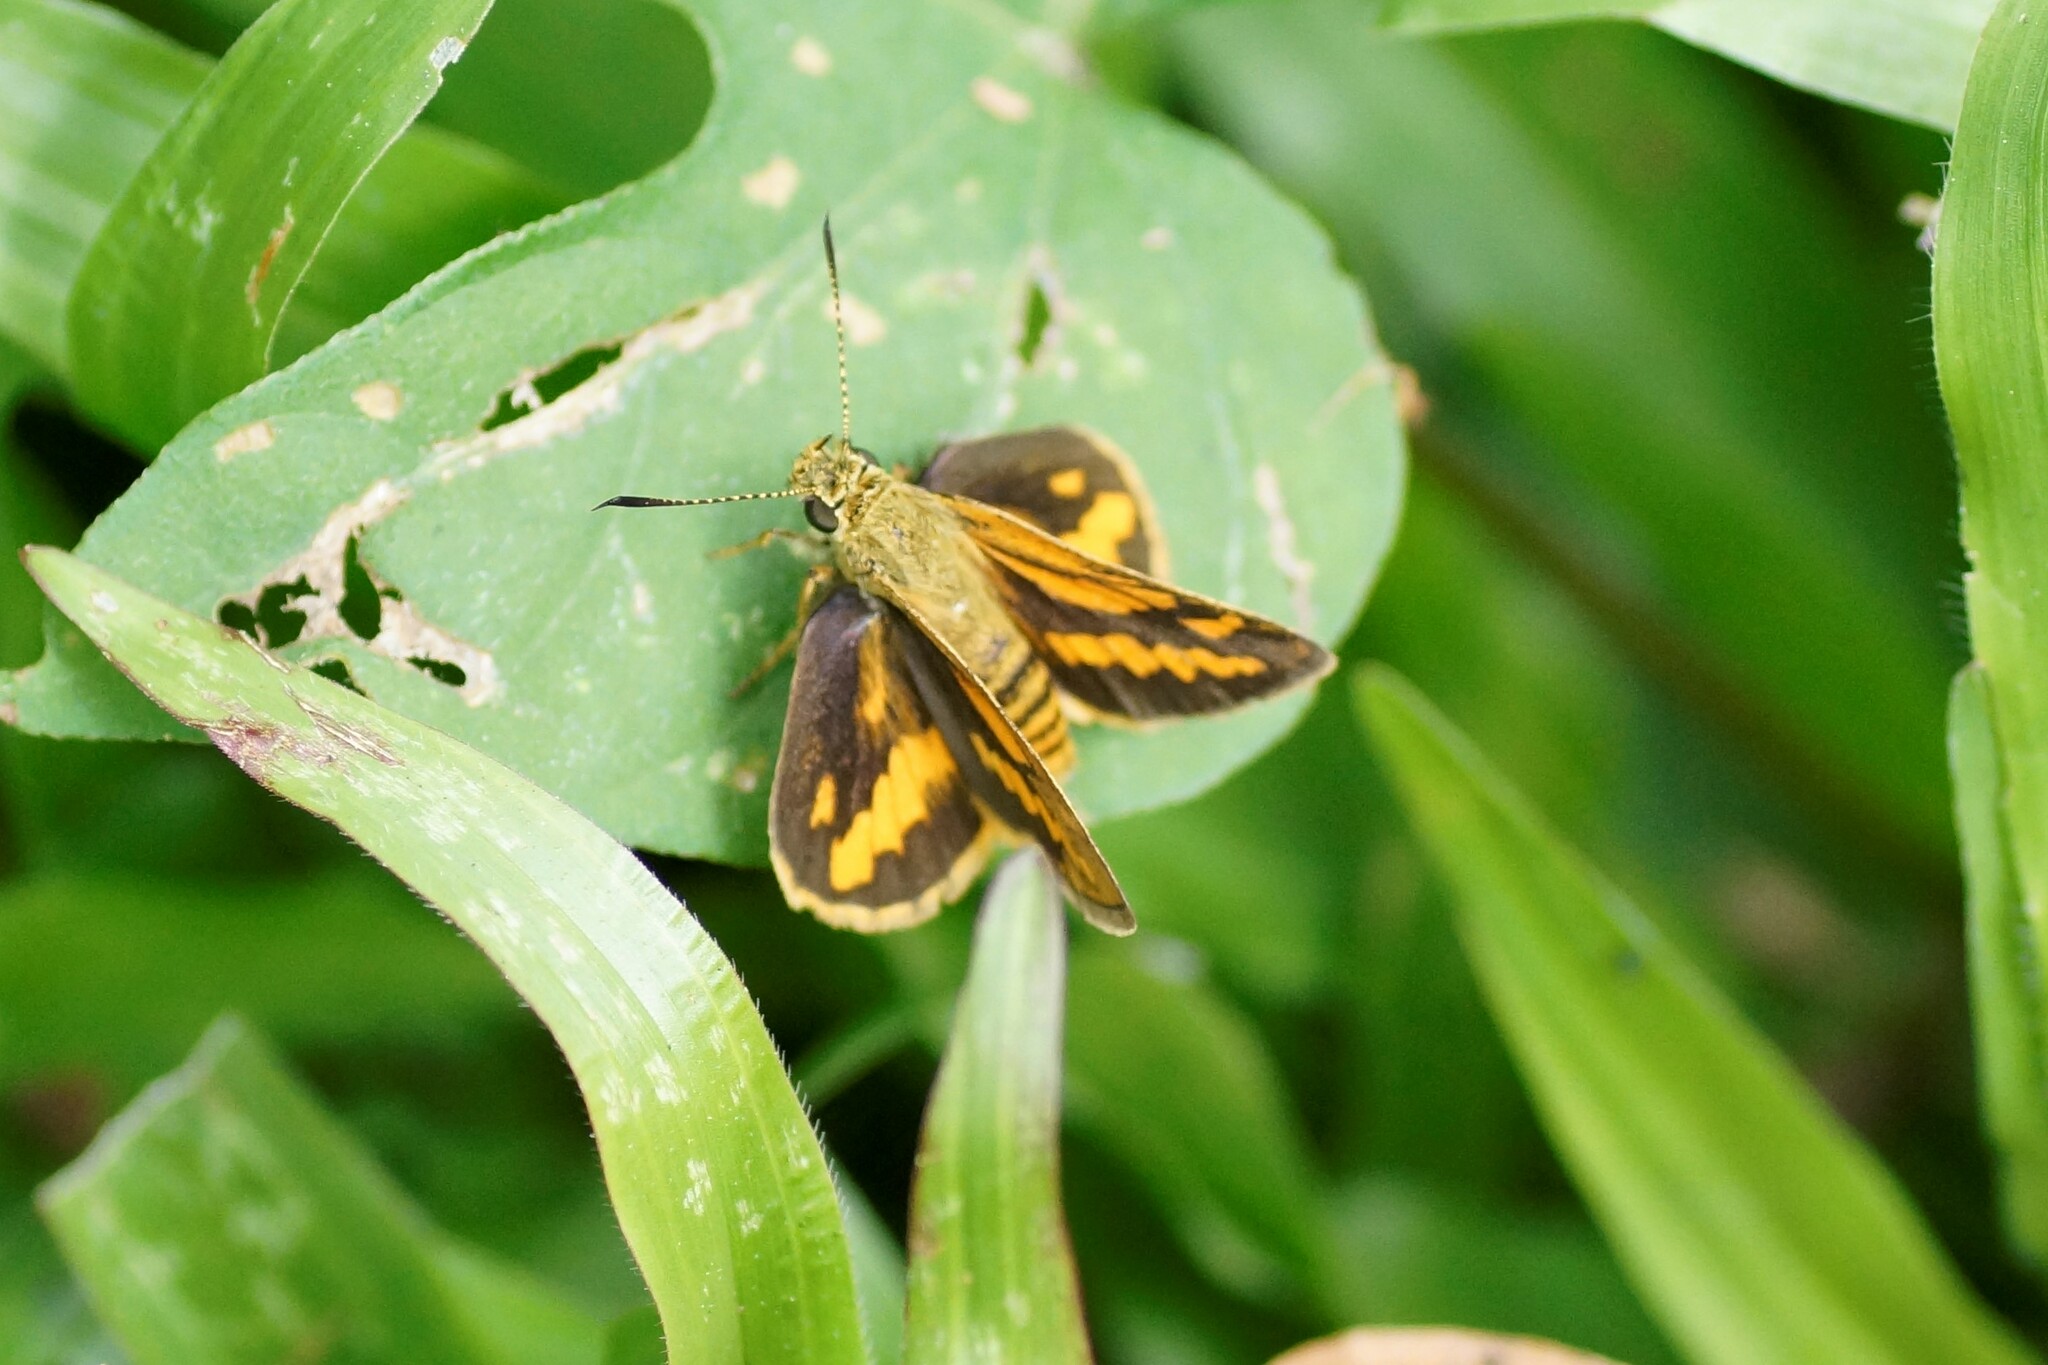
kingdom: Animalia
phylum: Arthropoda
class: Insecta
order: Lepidoptera
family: Hesperiidae
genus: Suniana
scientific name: Suniana sunias
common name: Wide-brand grass-dart
